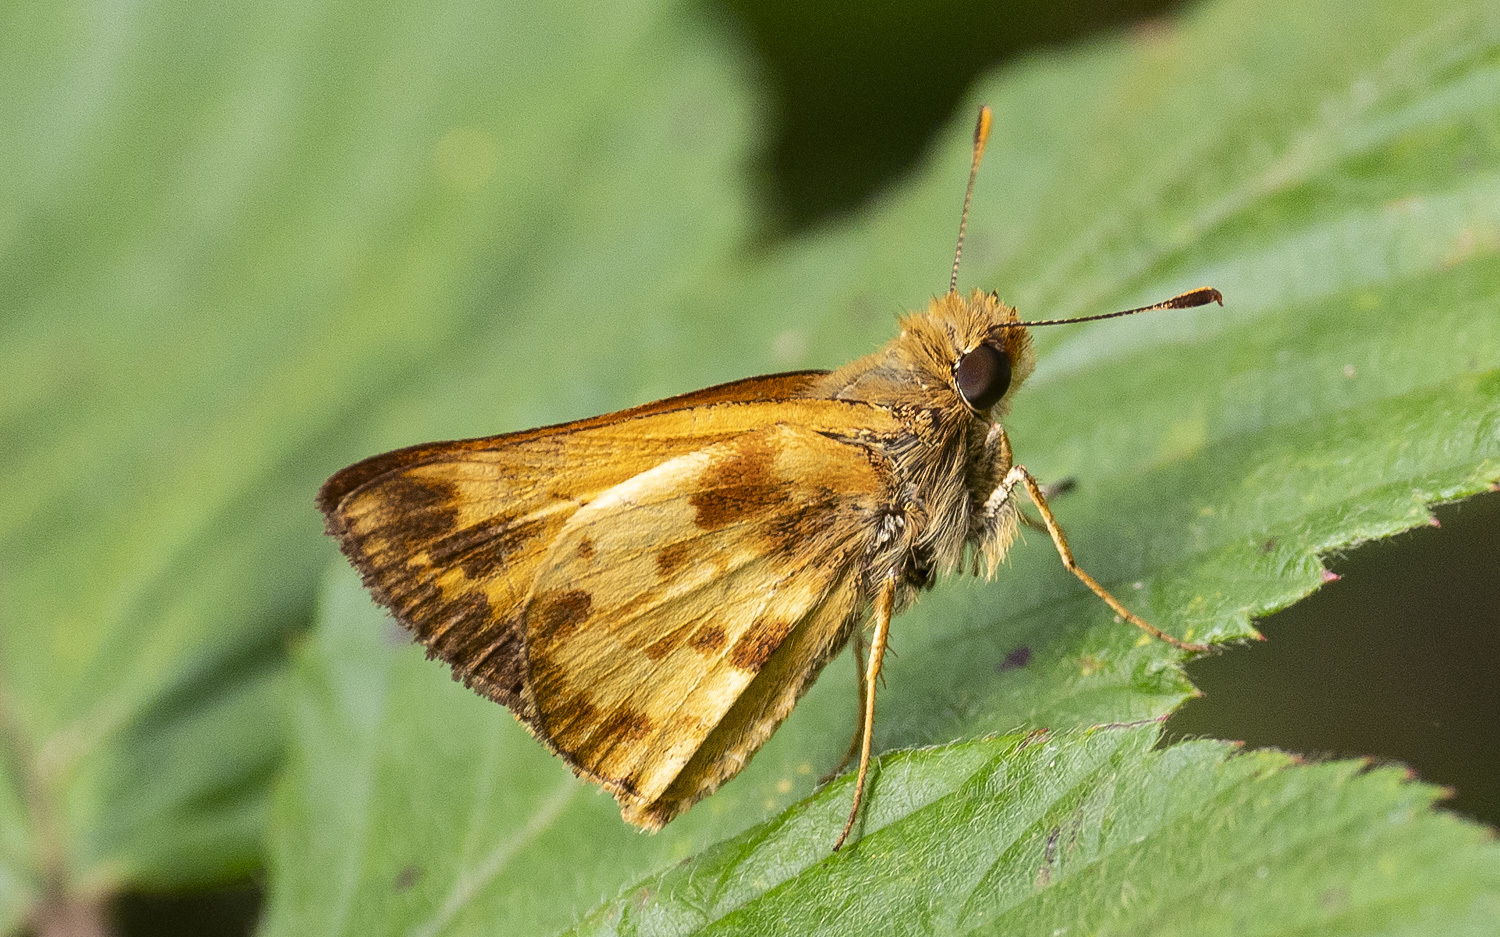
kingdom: Animalia
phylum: Arthropoda
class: Insecta
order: Lepidoptera
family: Hesperiidae
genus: Lon
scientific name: Lon zabulon
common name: Zabulon skipper
